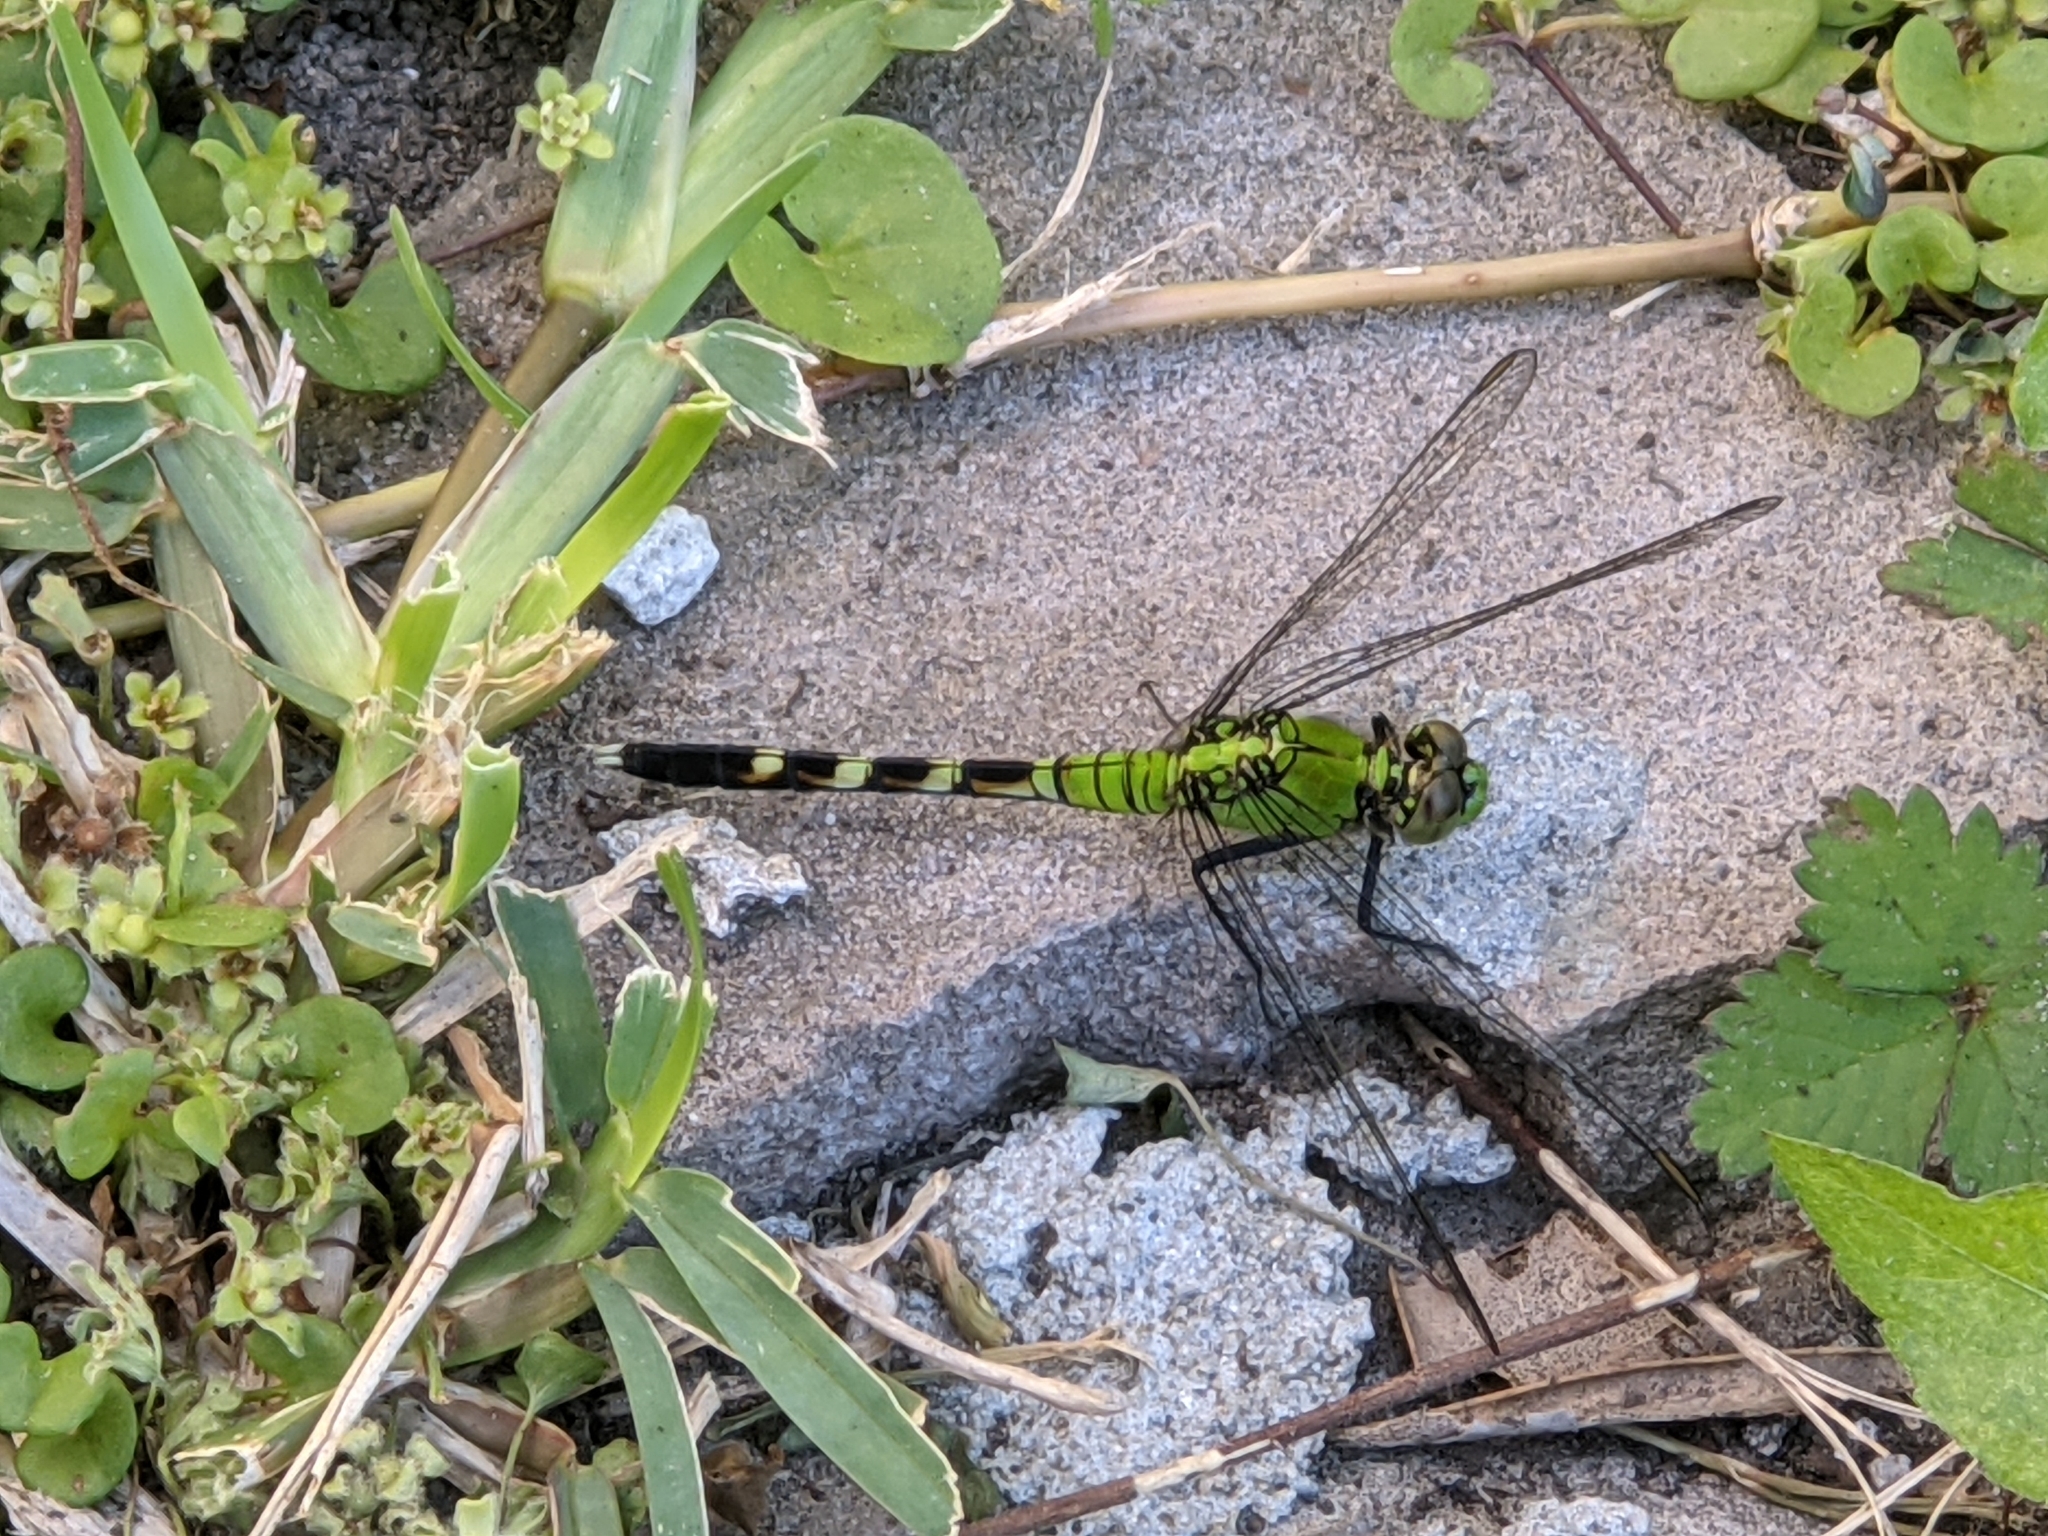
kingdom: Animalia
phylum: Arthropoda
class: Insecta
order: Odonata
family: Libellulidae
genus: Erythemis
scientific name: Erythemis simplicicollis
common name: Eastern pondhawk
